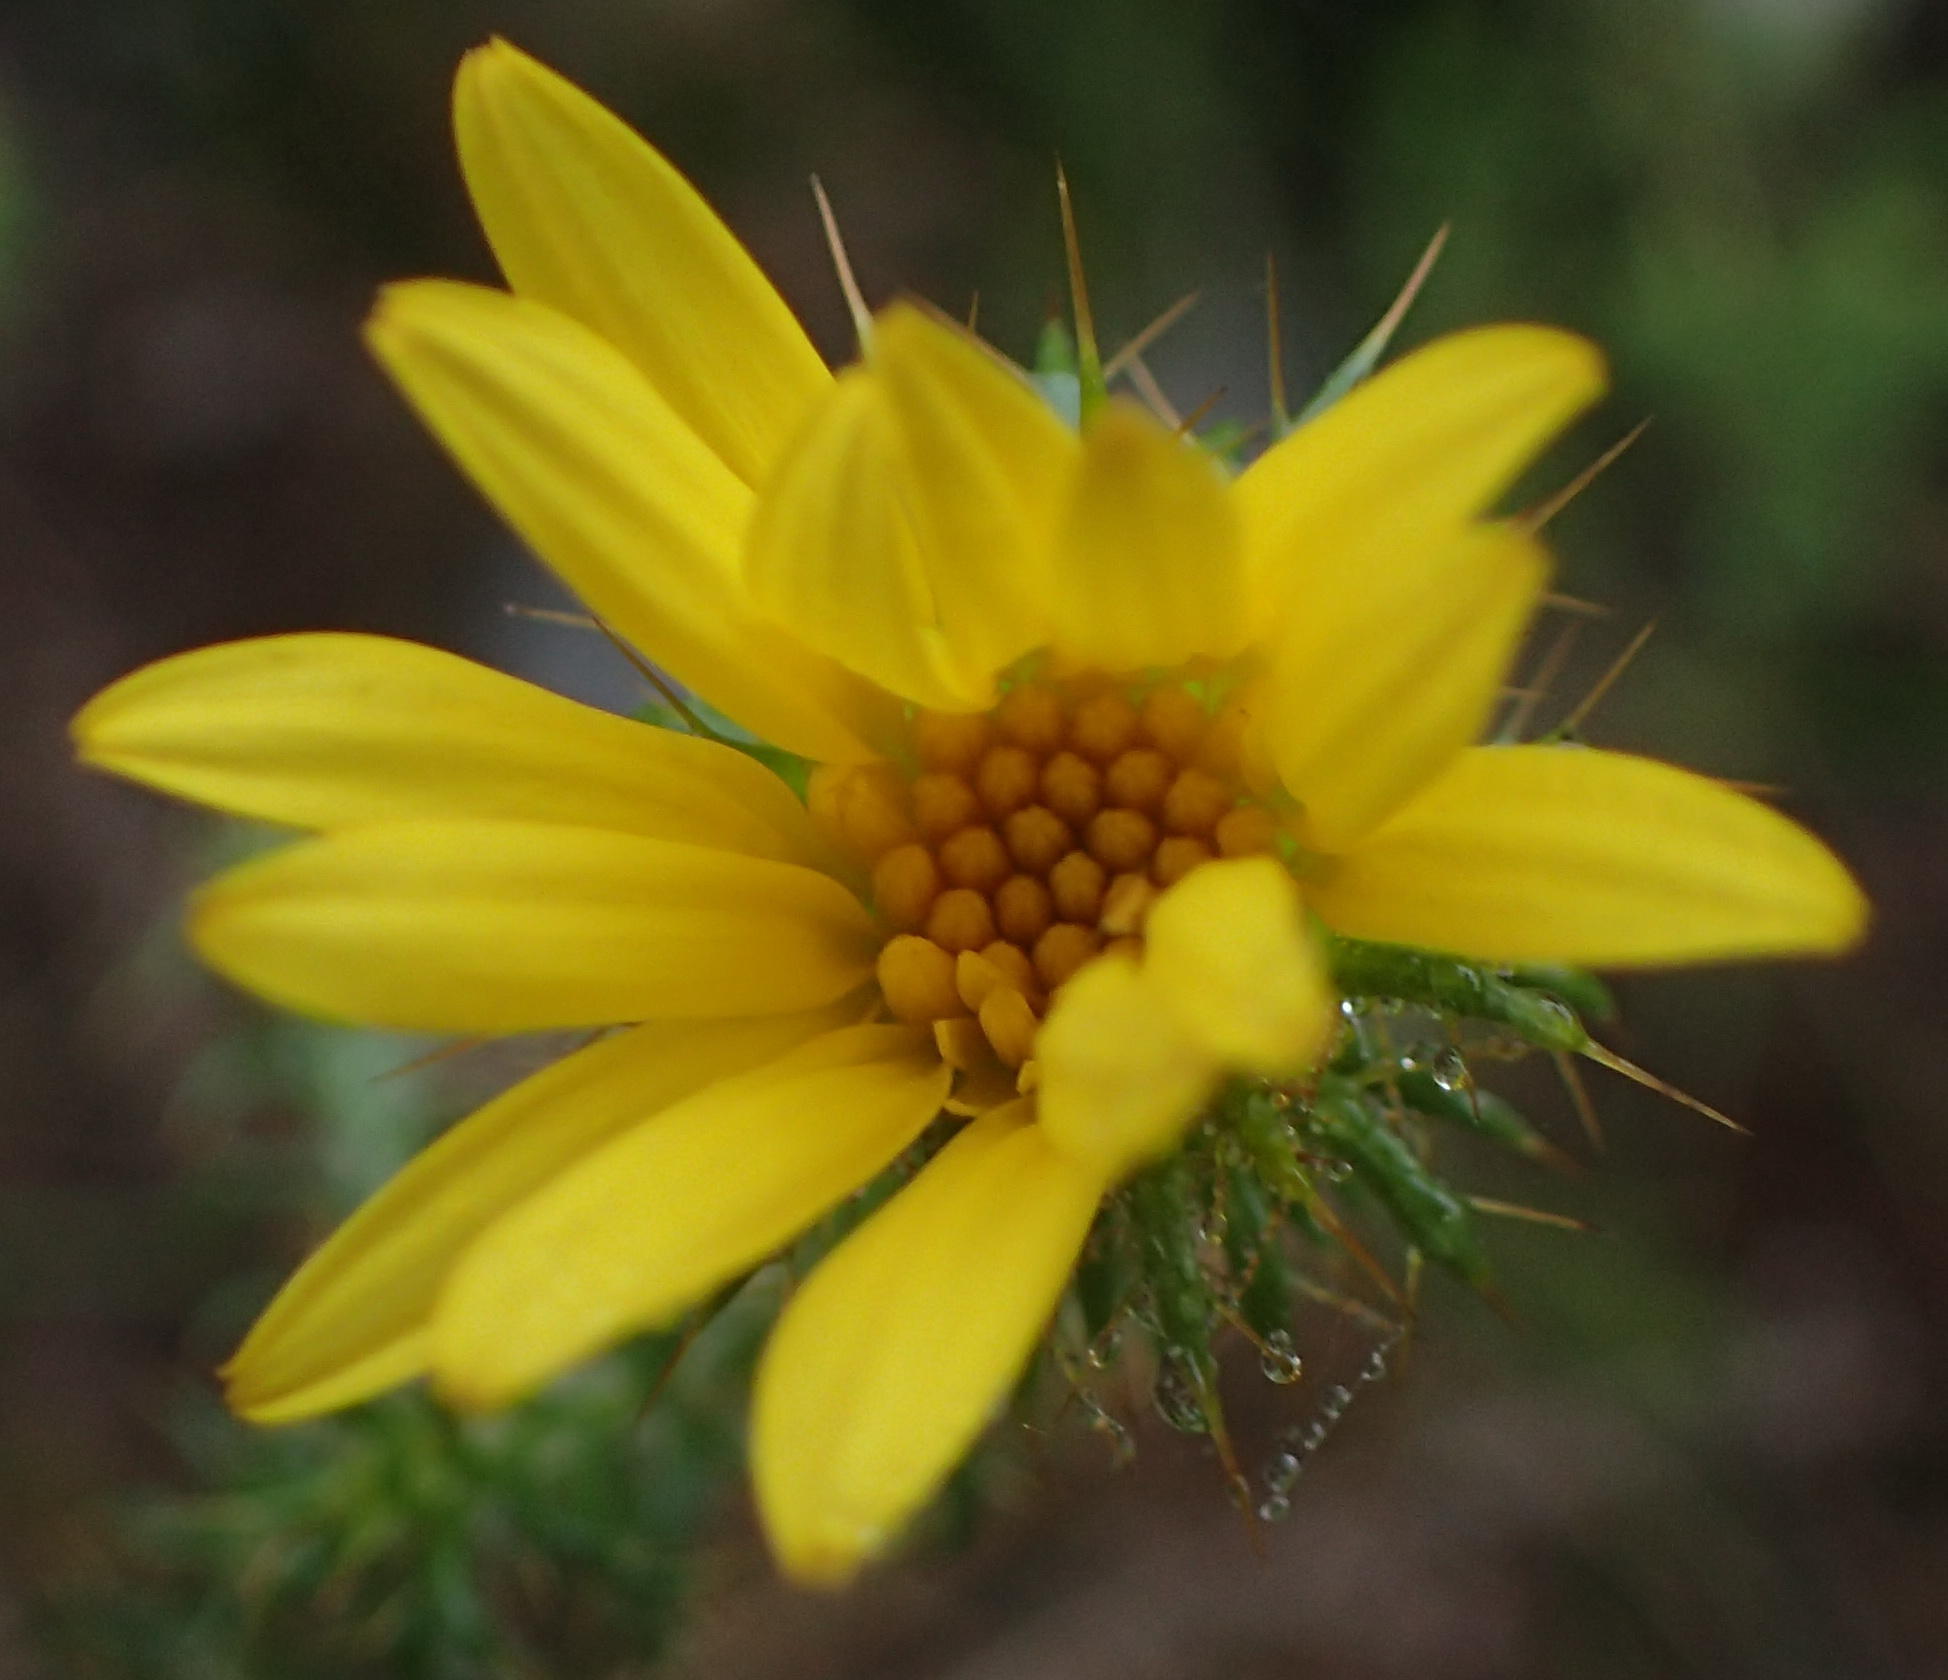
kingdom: Plantae
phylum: Tracheophyta
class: Magnoliopsida
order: Asterales
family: Asteraceae
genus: Cullumia
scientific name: Cullumia decurrens
